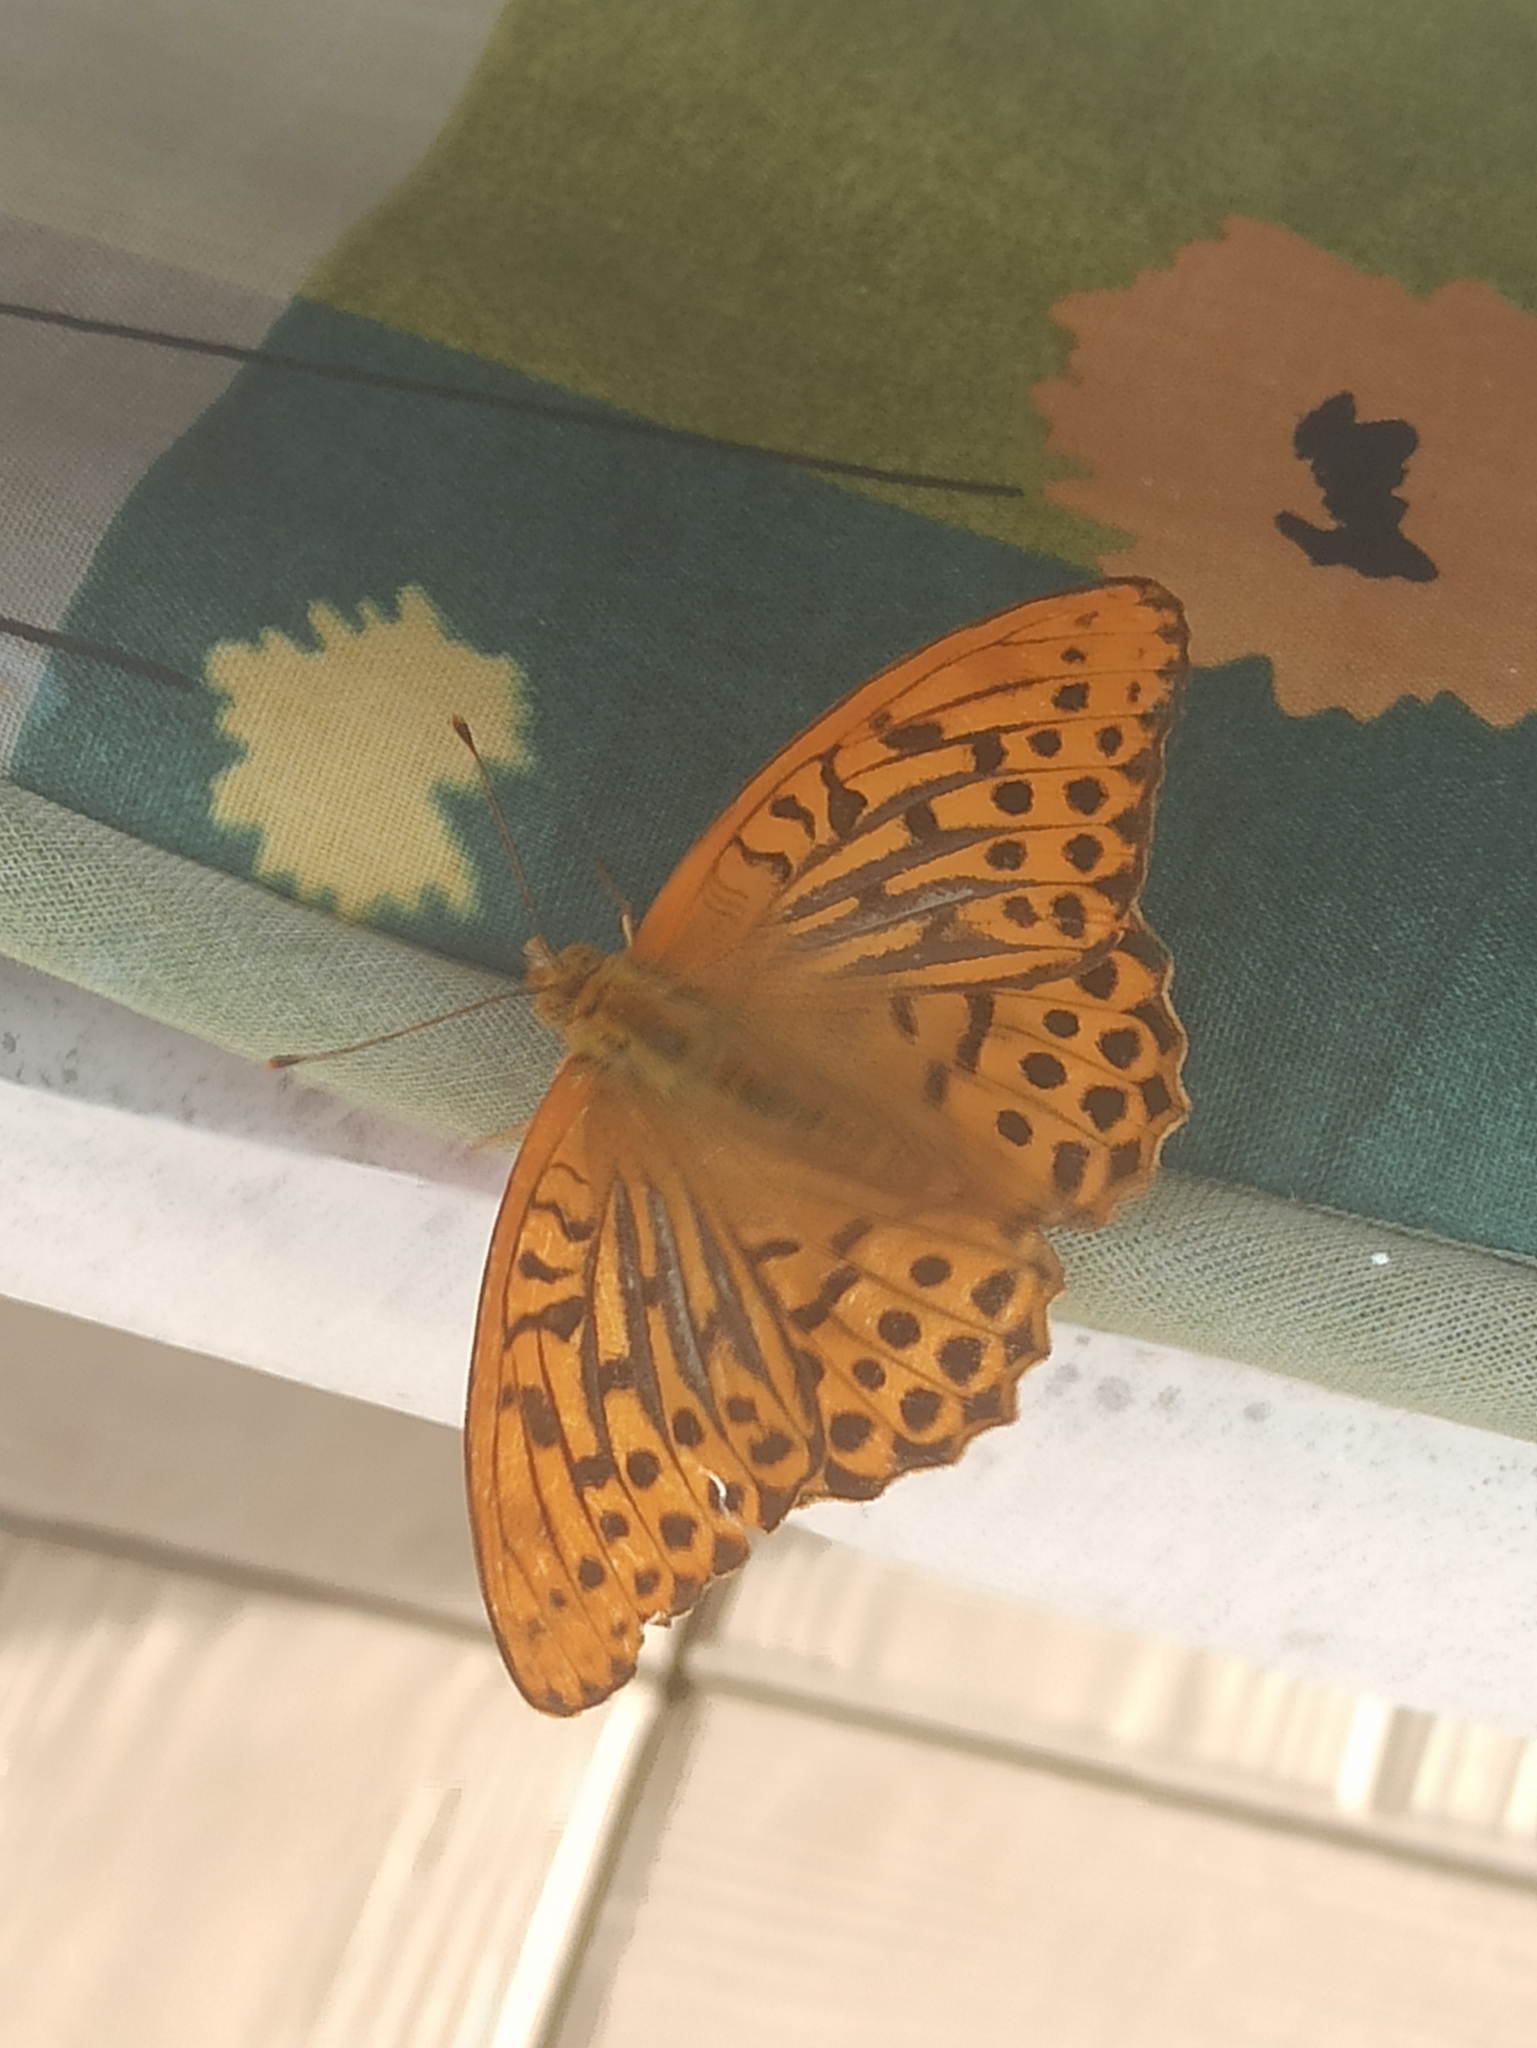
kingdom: Animalia
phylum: Arthropoda
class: Insecta
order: Lepidoptera
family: Nymphalidae
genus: Argynnis
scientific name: Argynnis paphia
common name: Silver-washed fritillary
